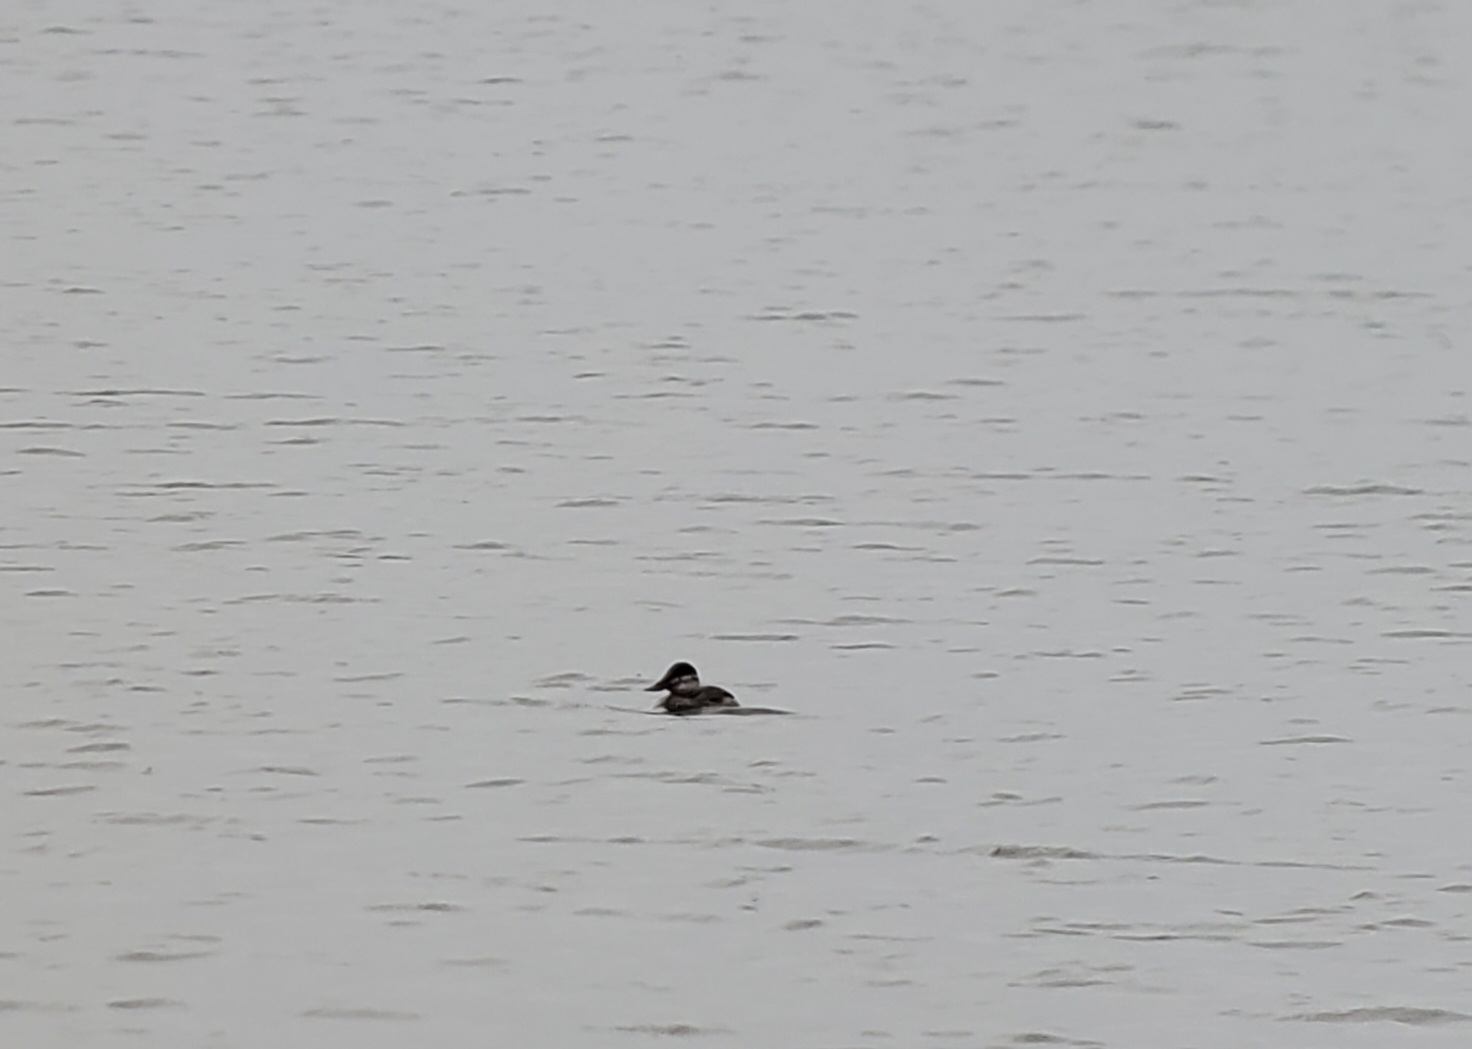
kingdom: Animalia
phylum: Chordata
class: Aves
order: Anseriformes
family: Anatidae
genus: Oxyura
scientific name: Oxyura jamaicensis
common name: Ruddy duck
